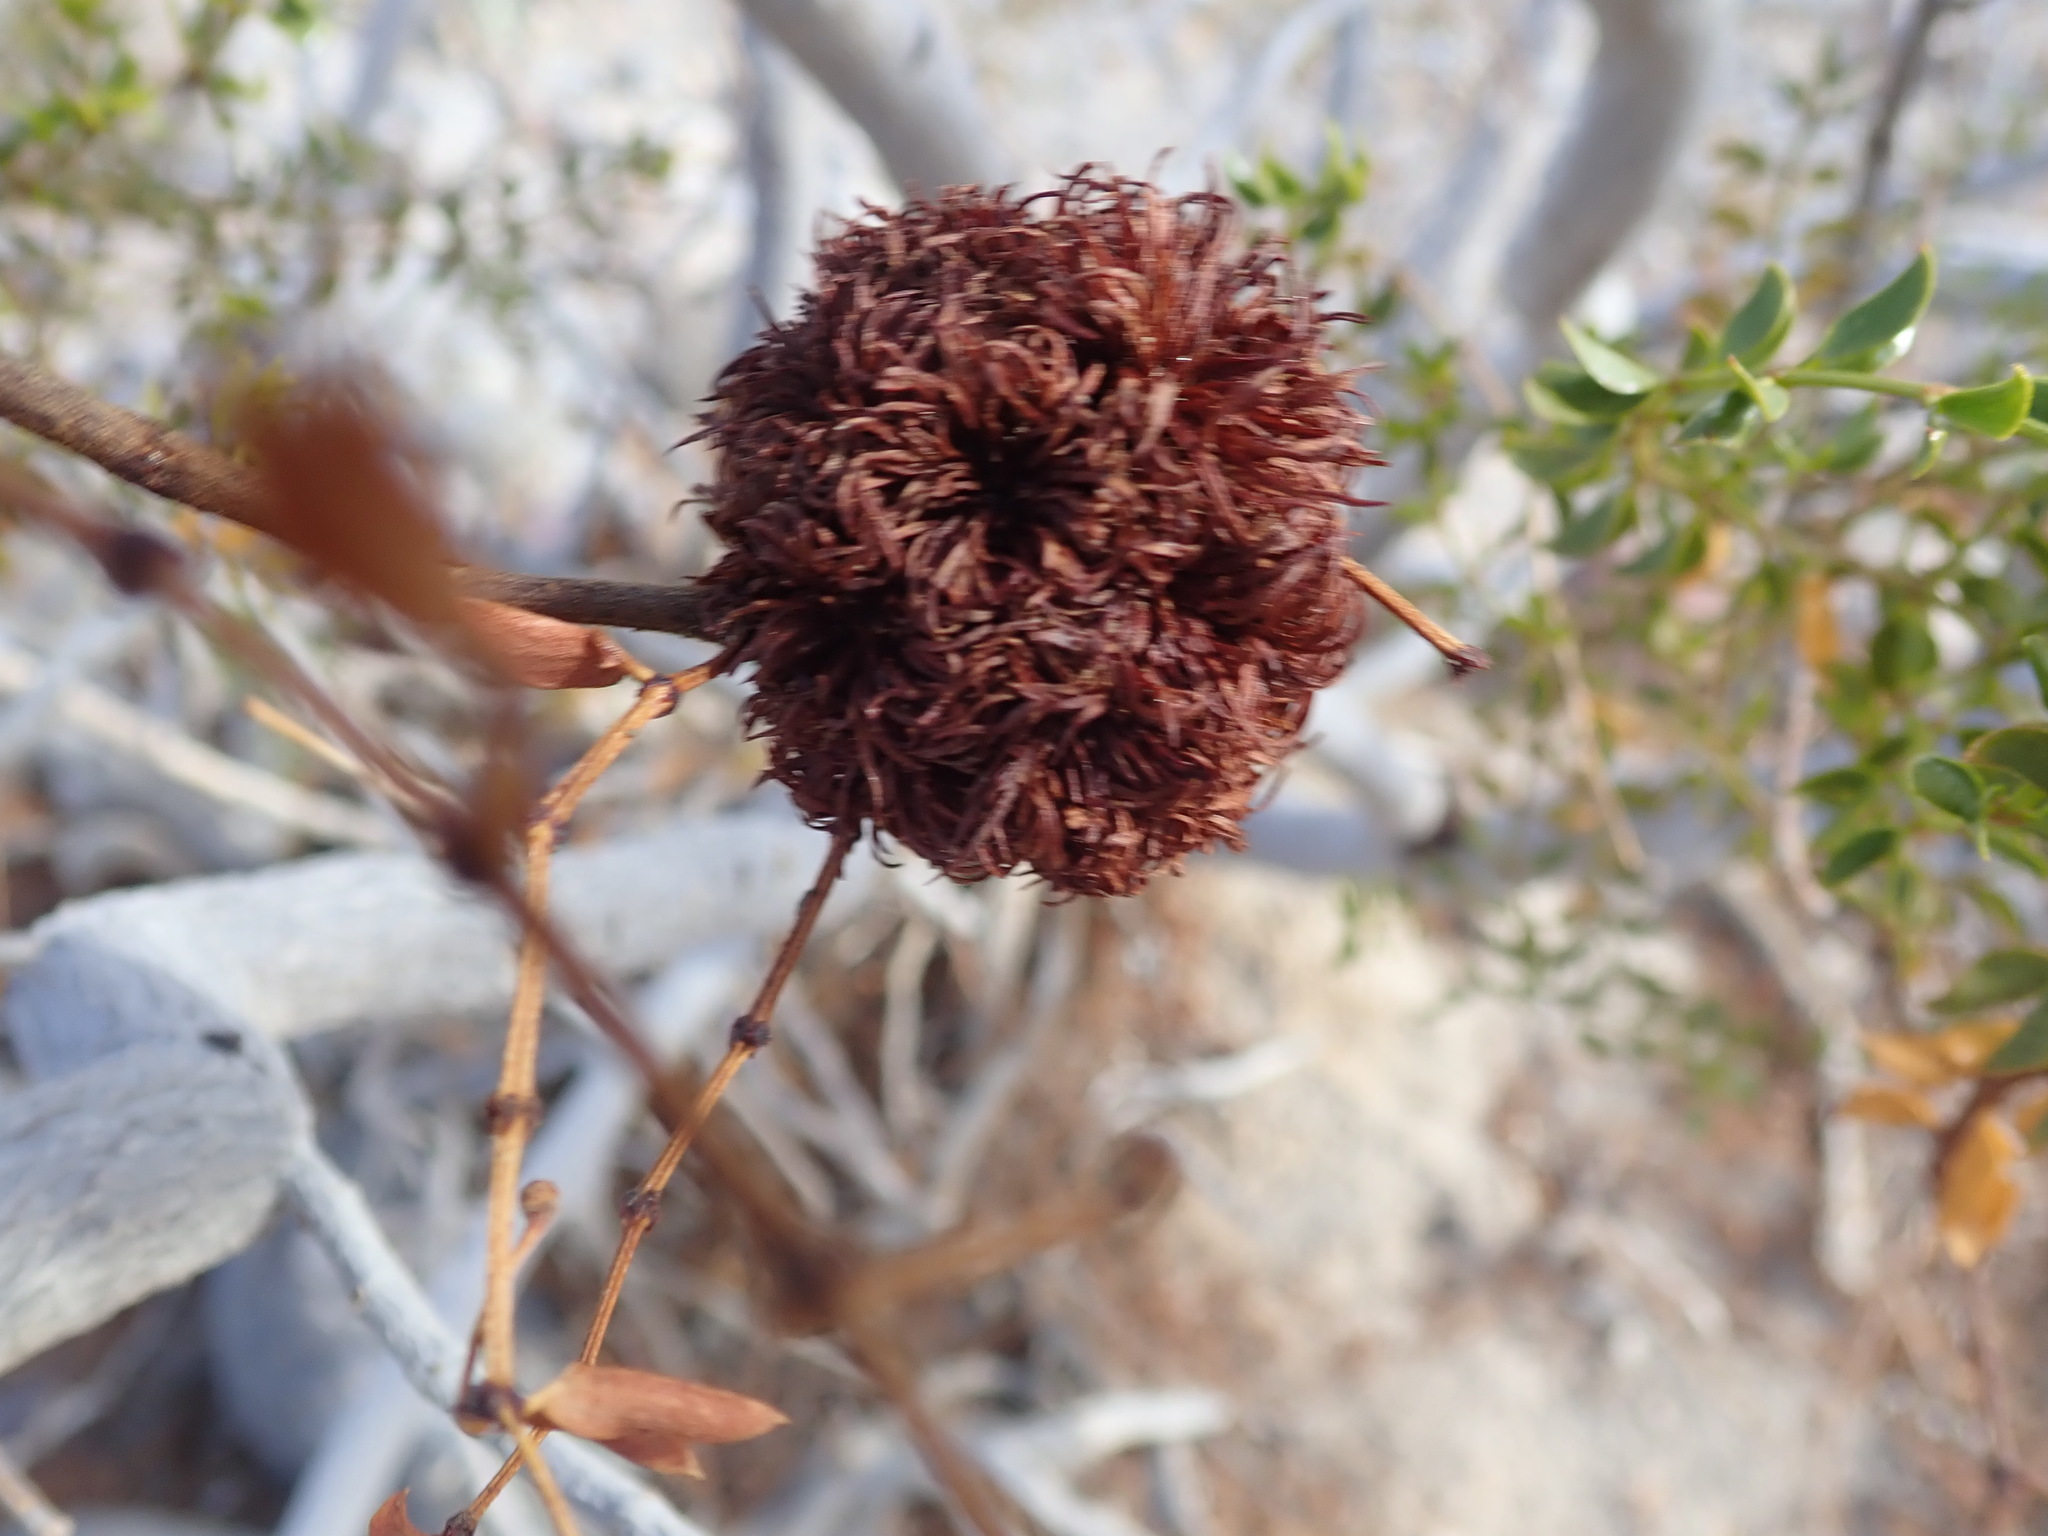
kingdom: Plantae
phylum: Tracheophyta
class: Magnoliopsida
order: Zygophyllales
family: Zygophyllaceae
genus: Larrea
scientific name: Larrea tridentata
